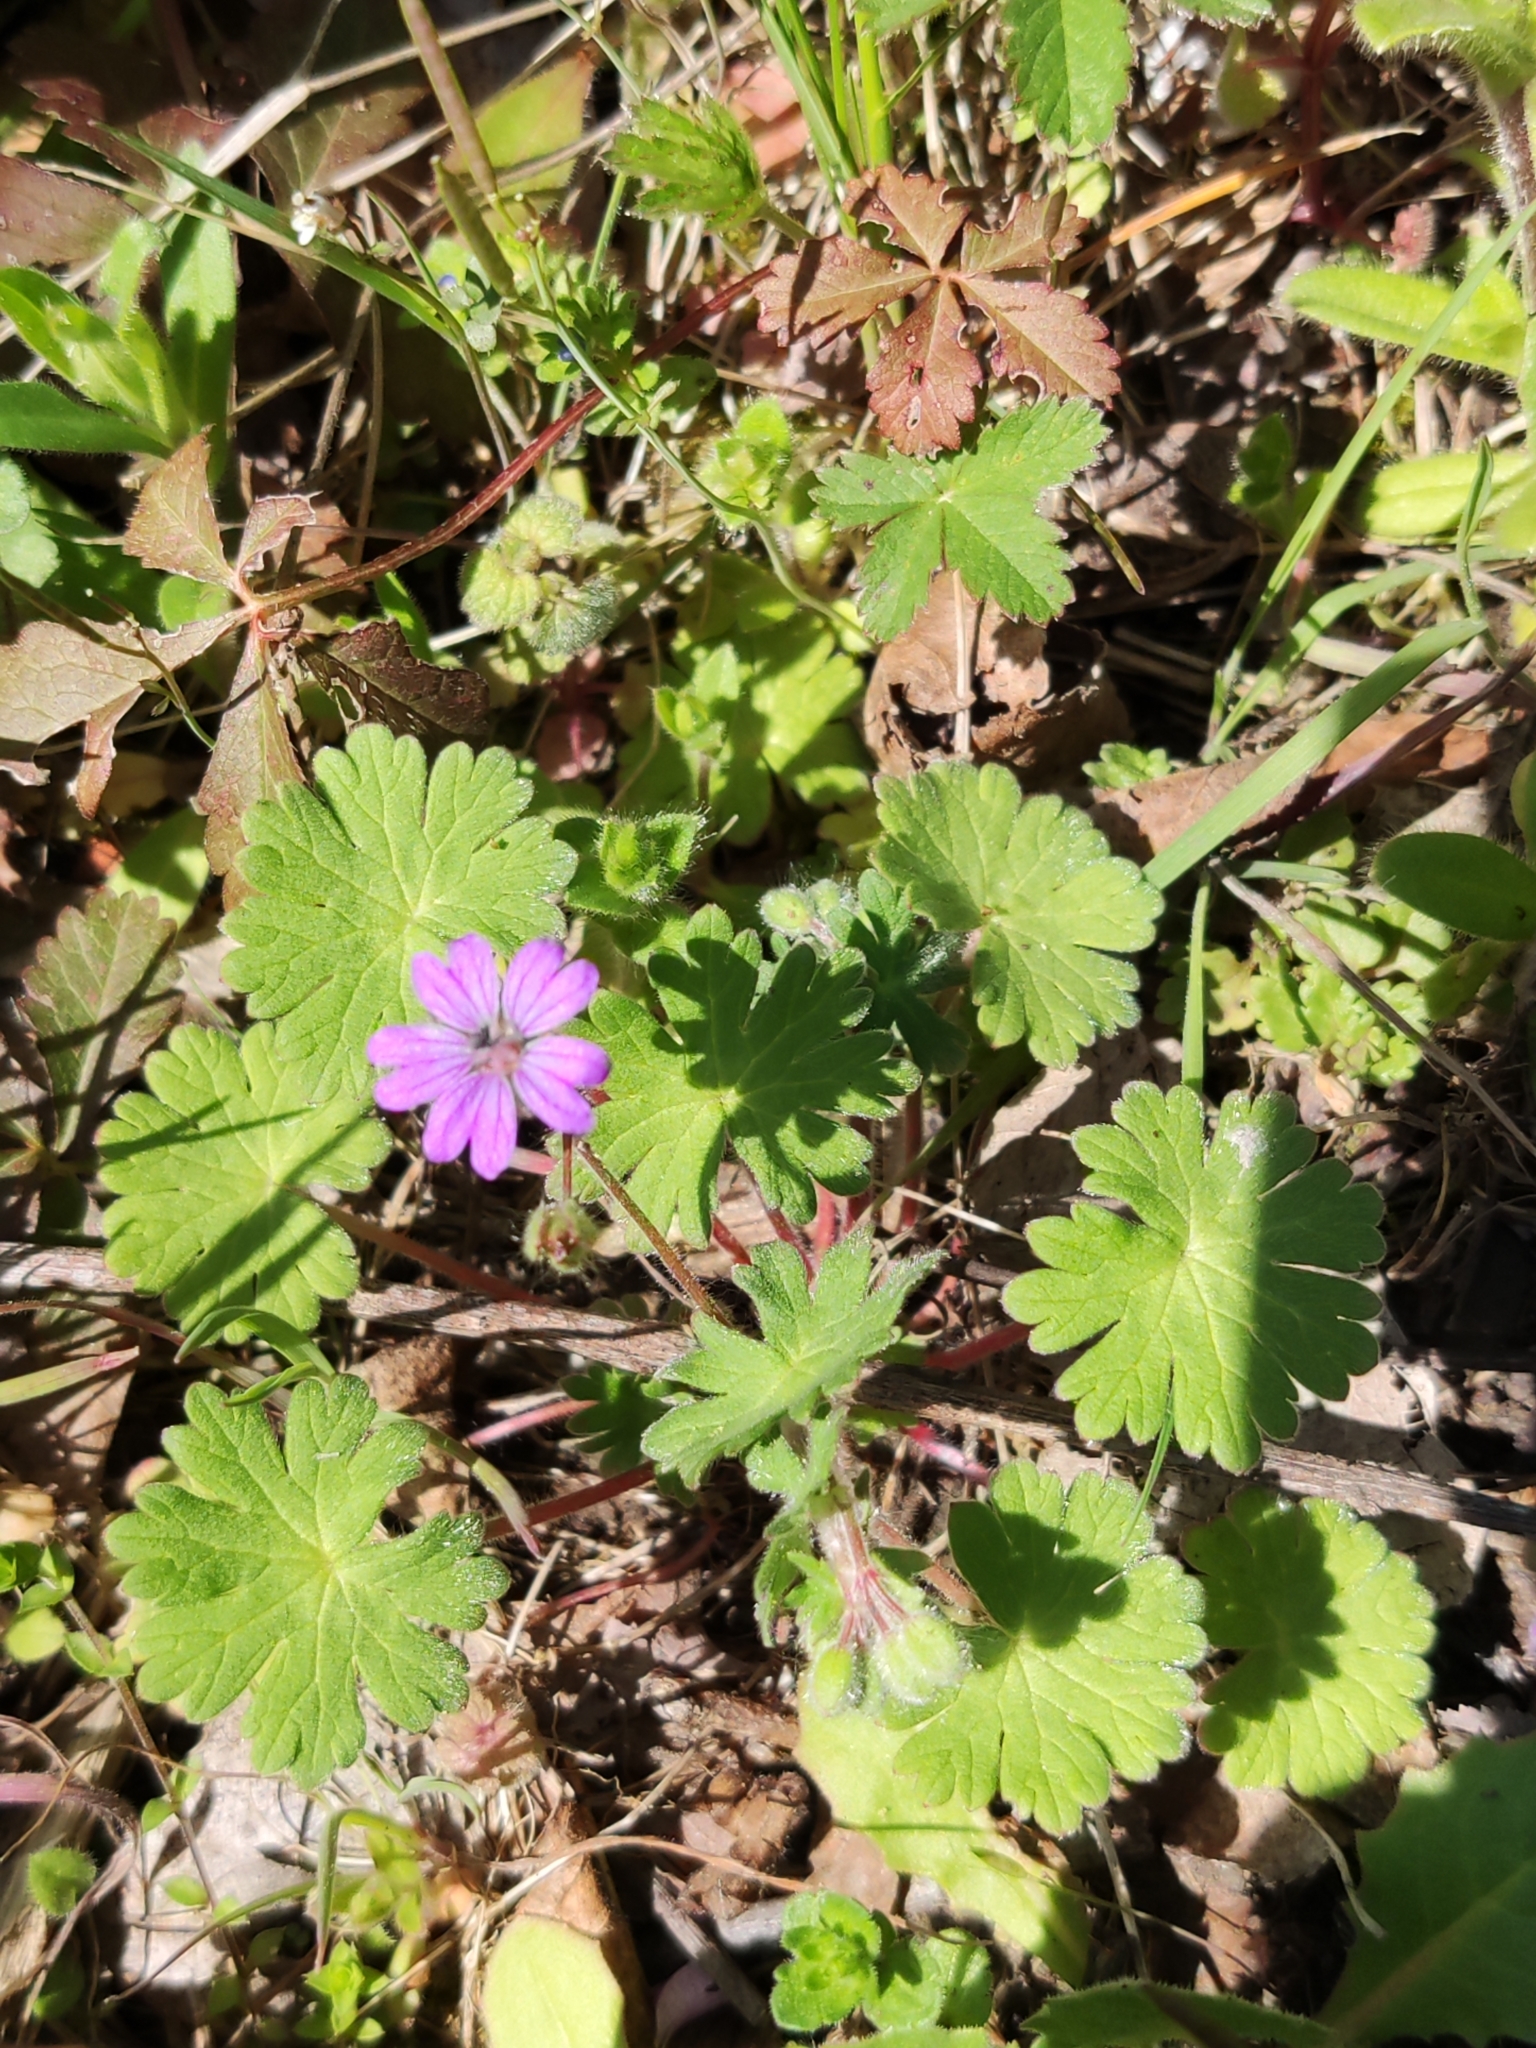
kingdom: Plantae
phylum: Tracheophyta
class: Magnoliopsida
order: Geraniales
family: Geraniaceae
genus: Geranium
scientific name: Geranium molle
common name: Dove's-foot crane's-bill
